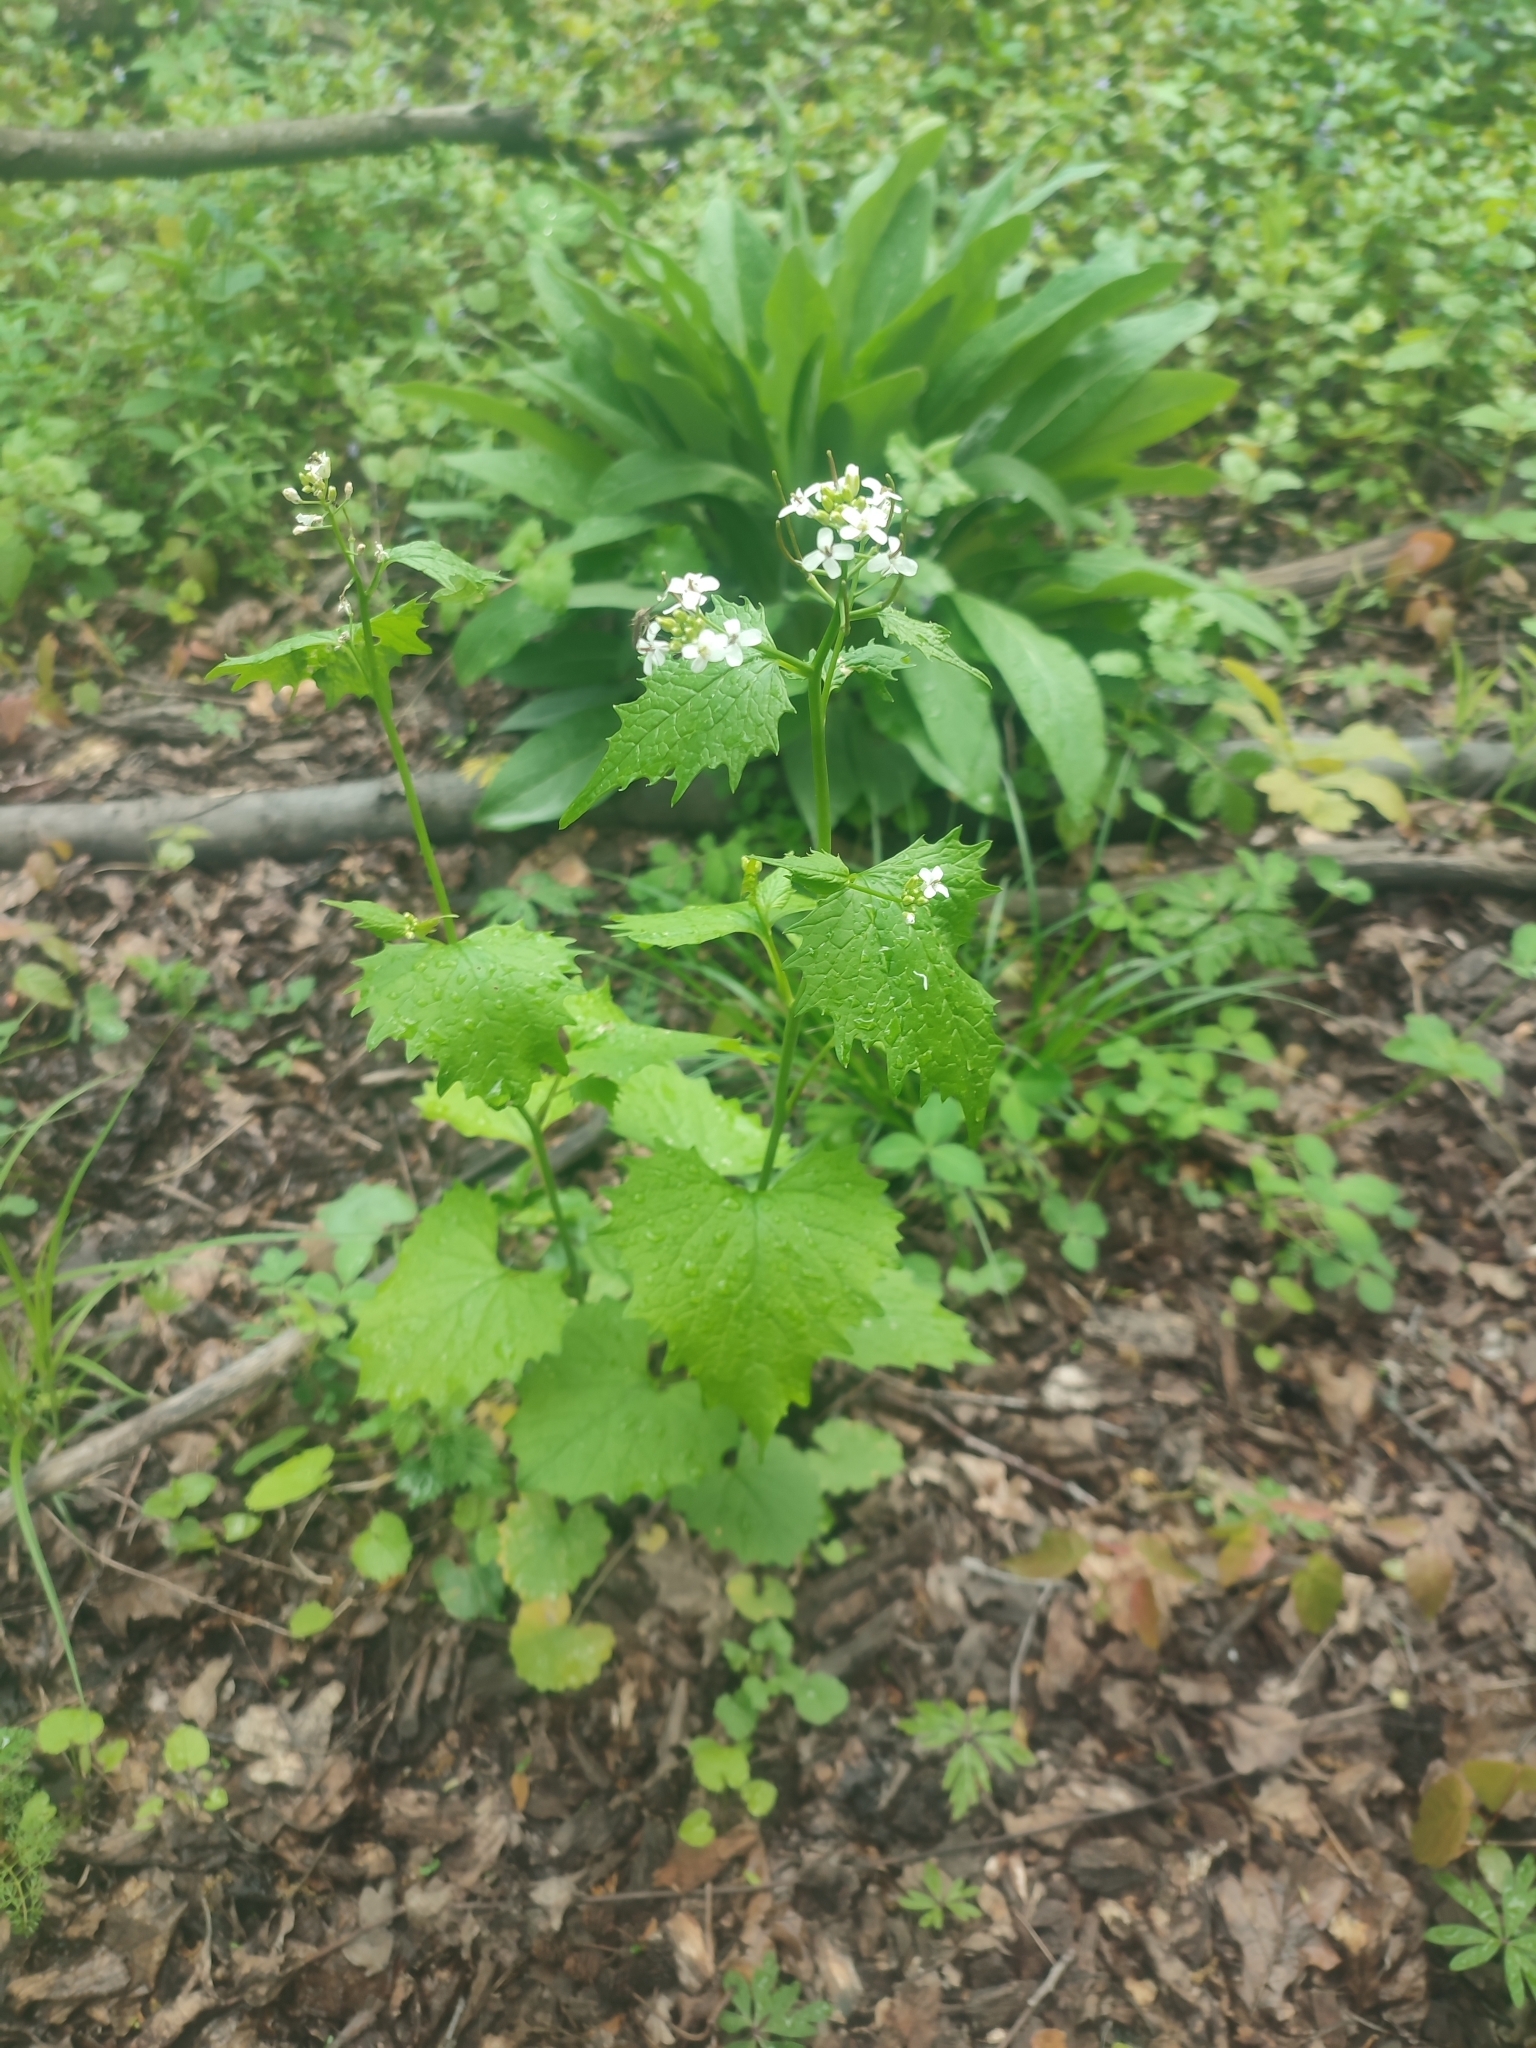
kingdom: Plantae
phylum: Tracheophyta
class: Magnoliopsida
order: Brassicales
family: Brassicaceae
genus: Alliaria
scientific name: Alliaria petiolata
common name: Garlic mustard
